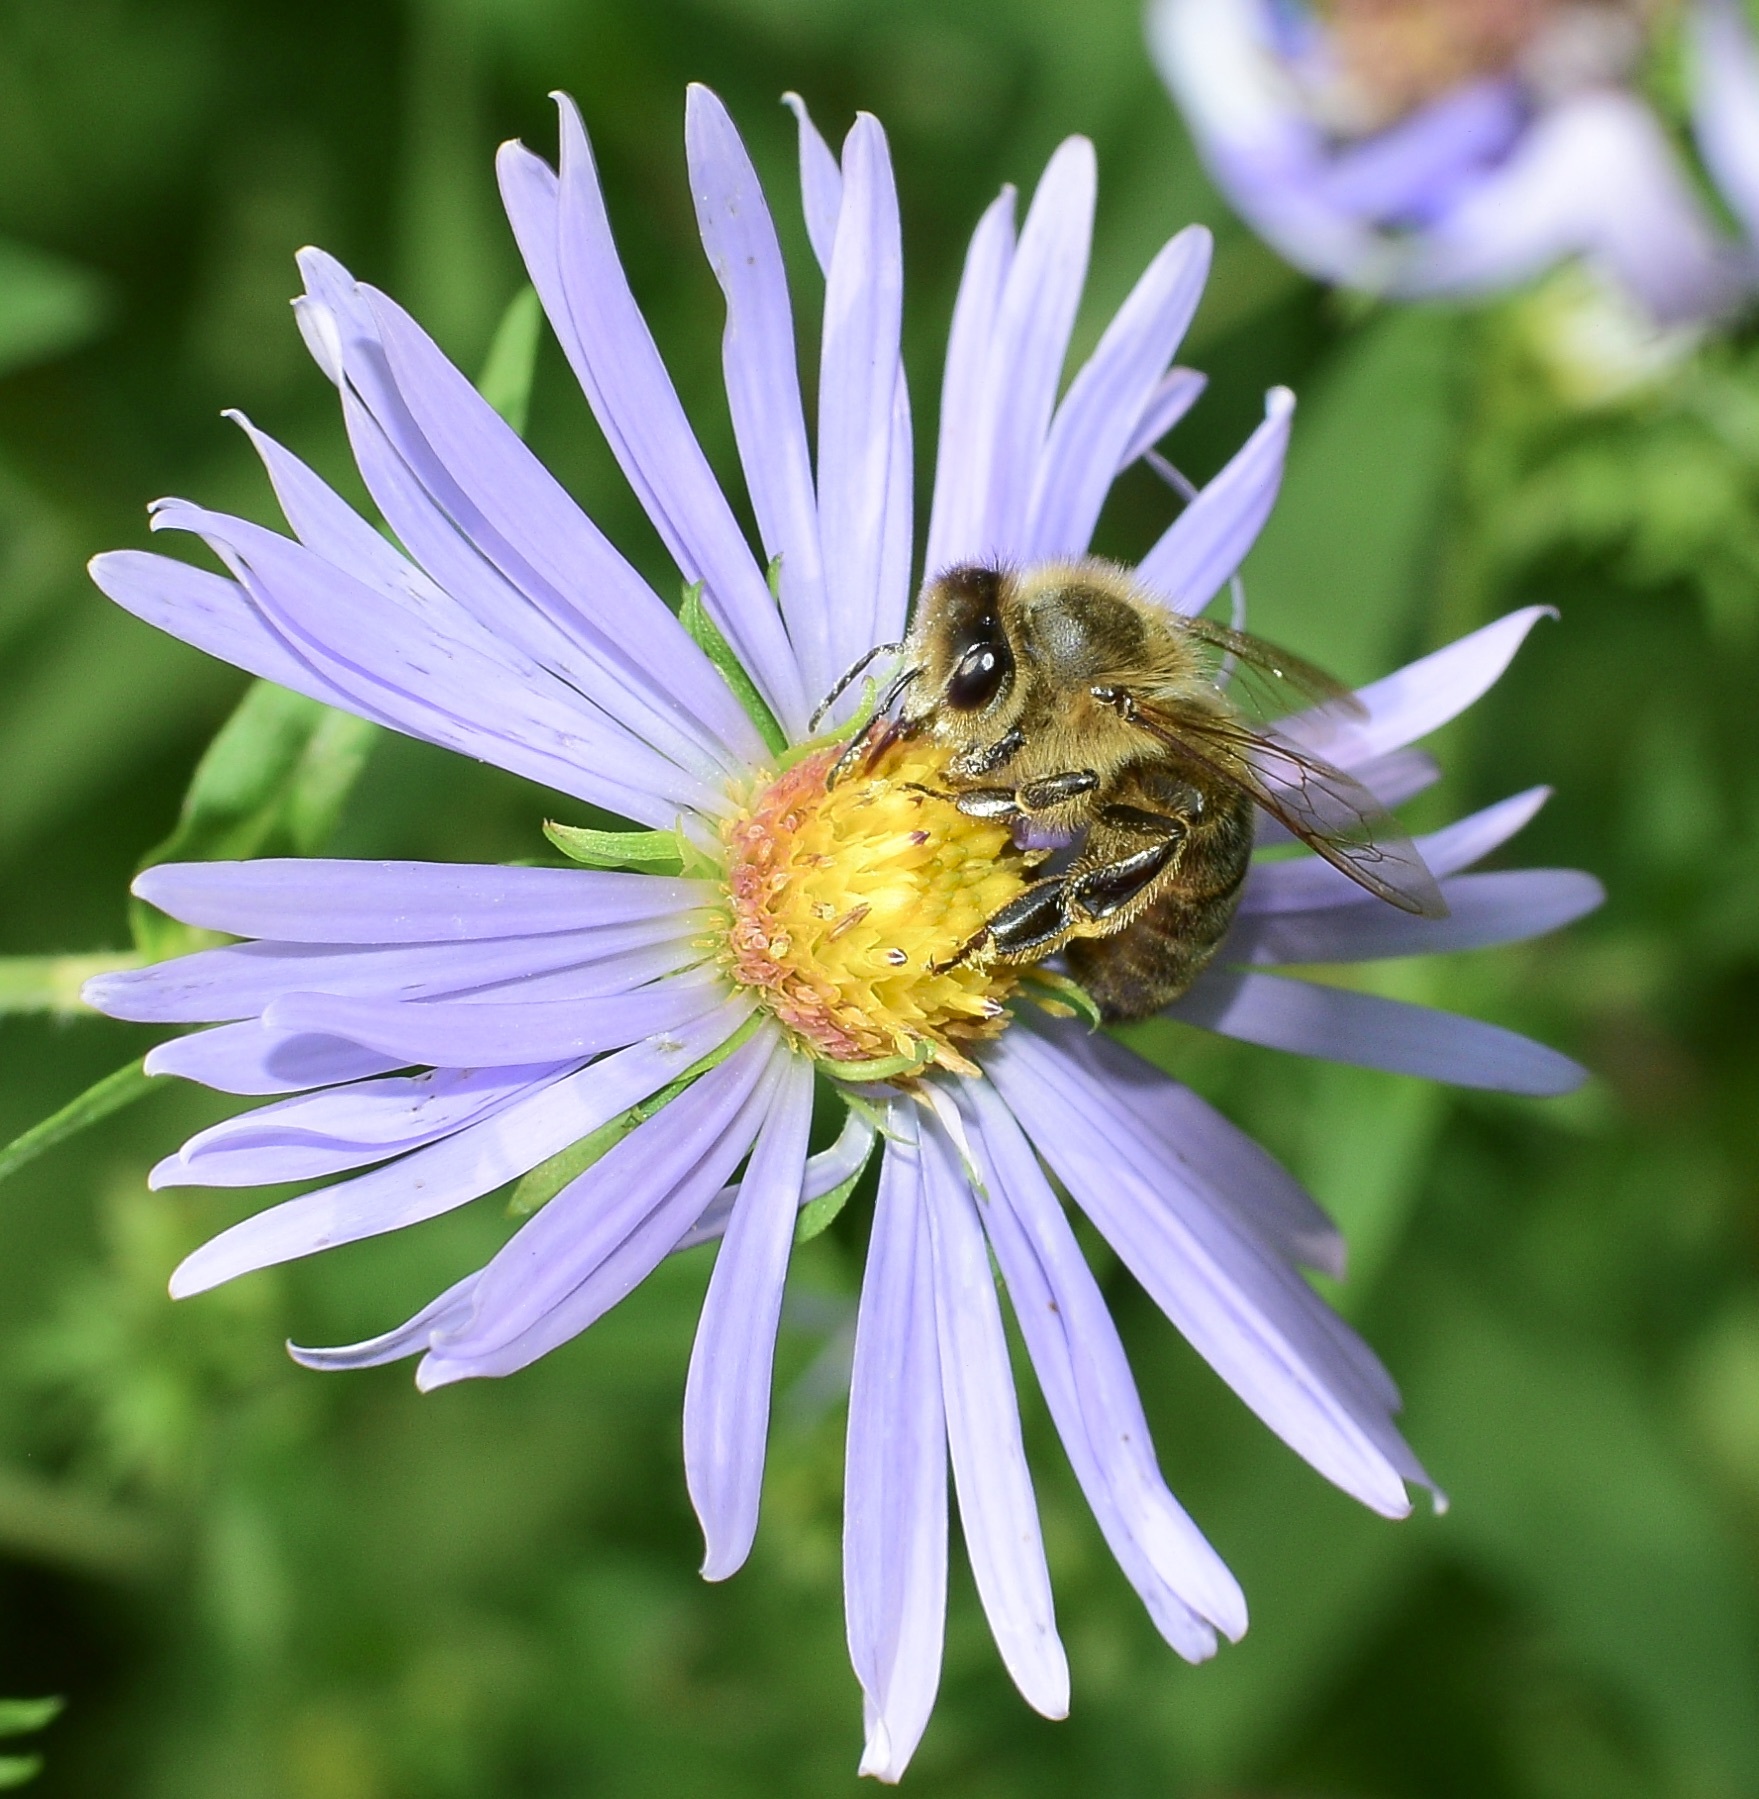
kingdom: Animalia
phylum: Arthropoda
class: Insecta
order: Hymenoptera
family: Apidae
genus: Apis
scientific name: Apis mellifera
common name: Honey bee
